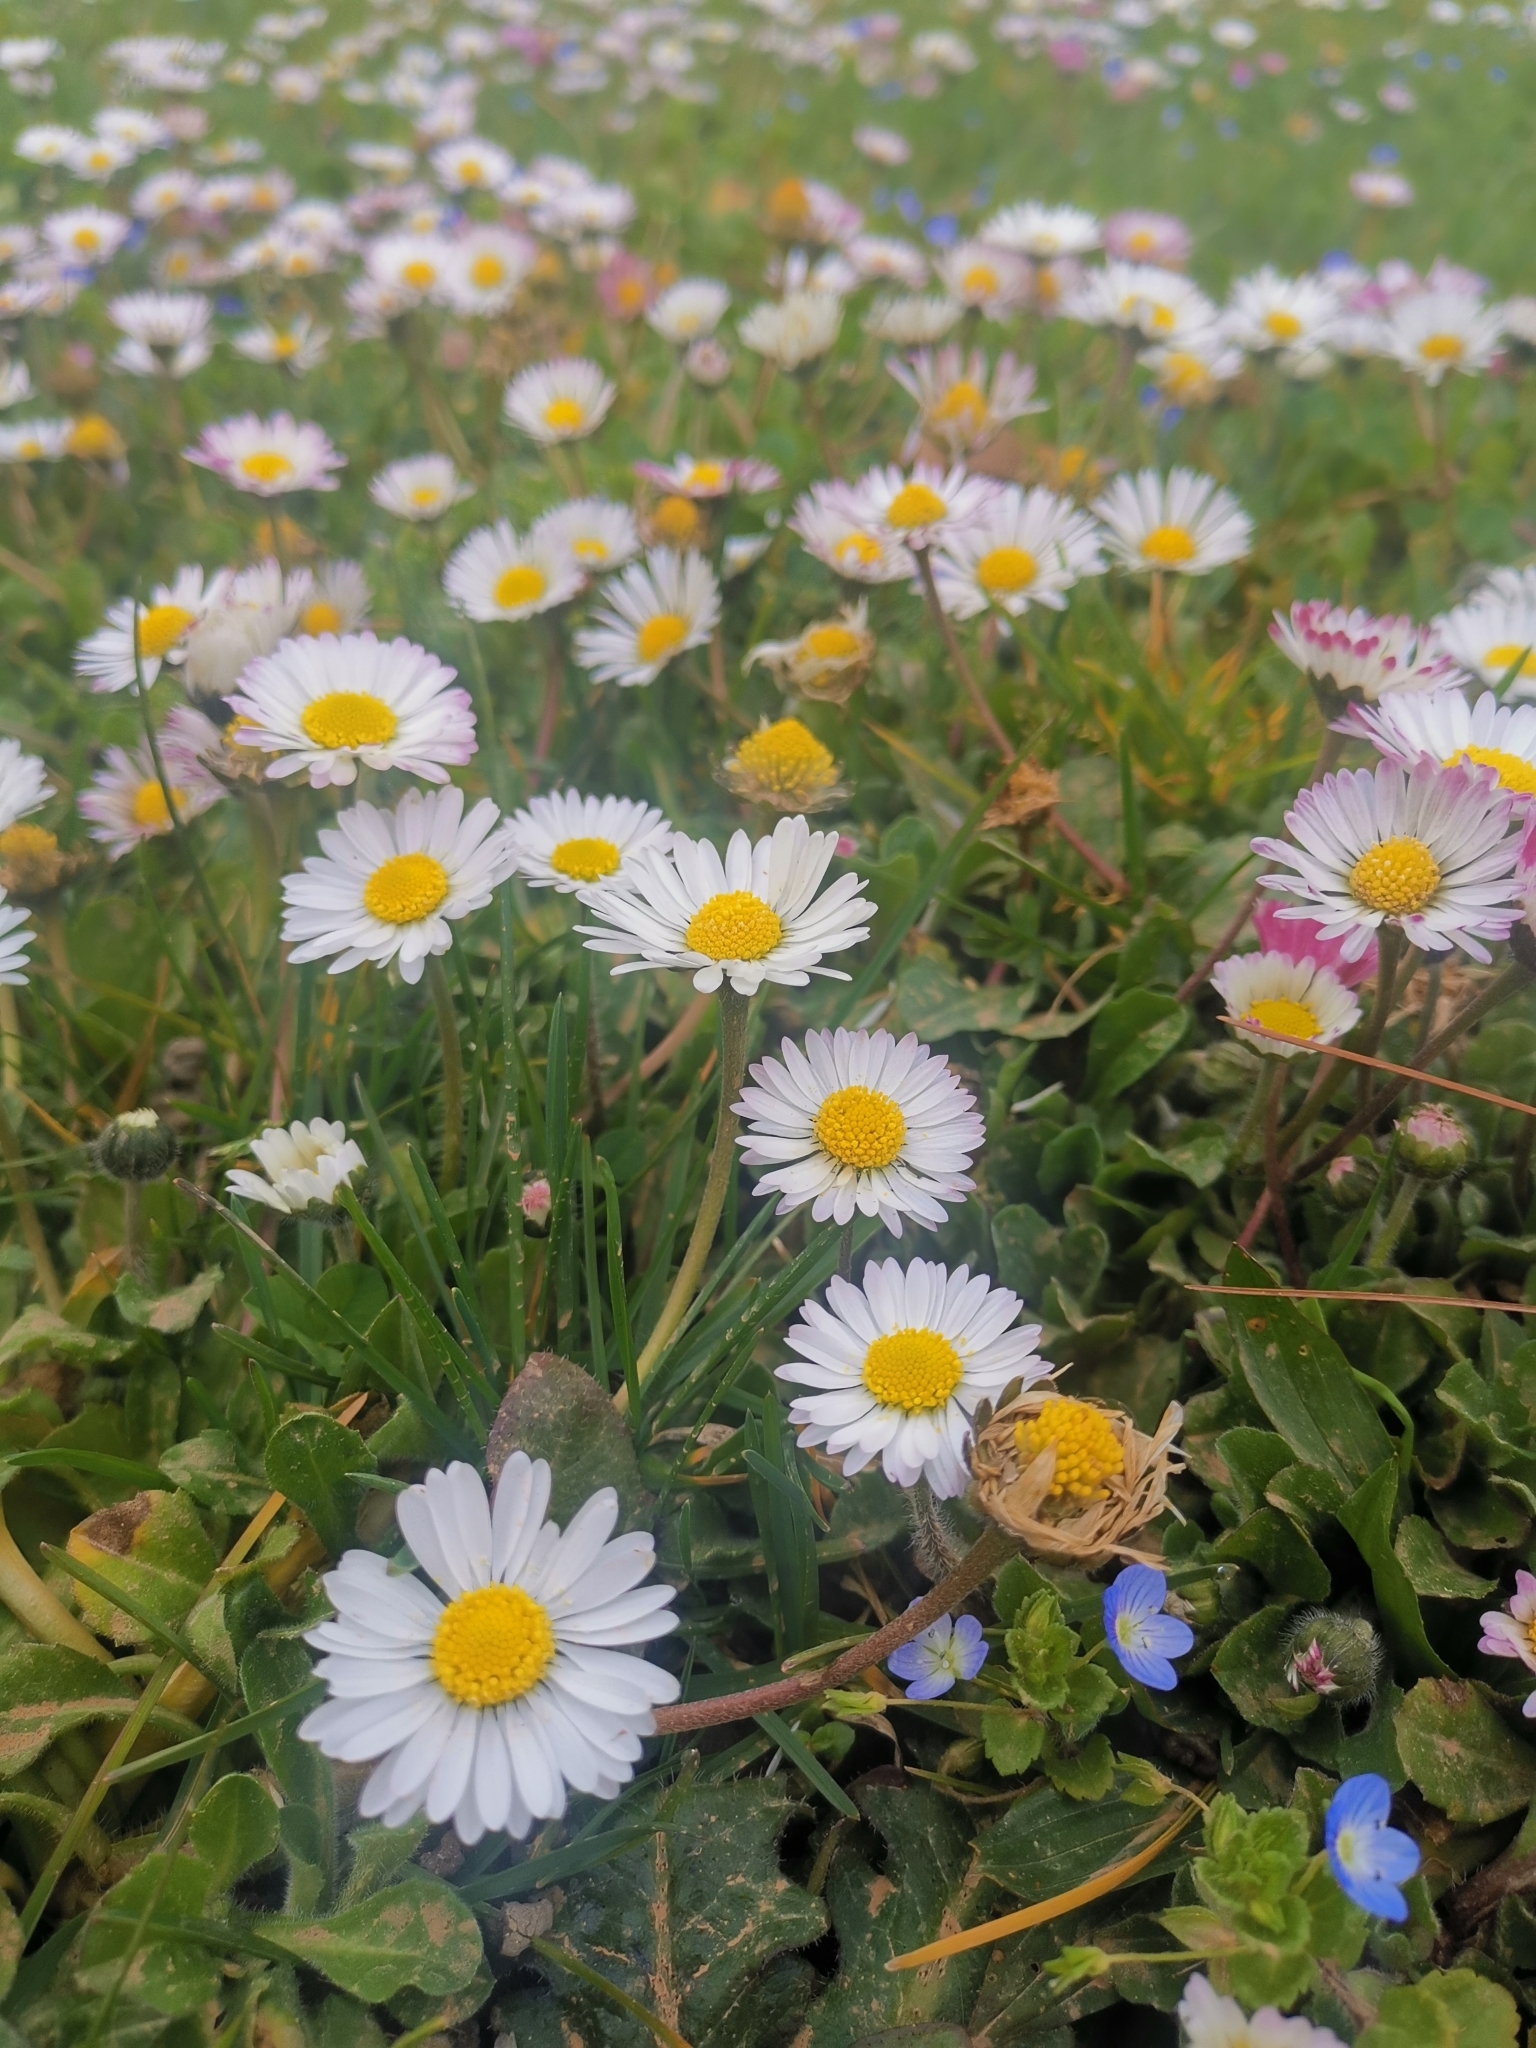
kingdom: Plantae
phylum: Tracheophyta
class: Magnoliopsida
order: Asterales
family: Asteraceae
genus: Bellis
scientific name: Bellis perennis
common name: Lawndaisy
